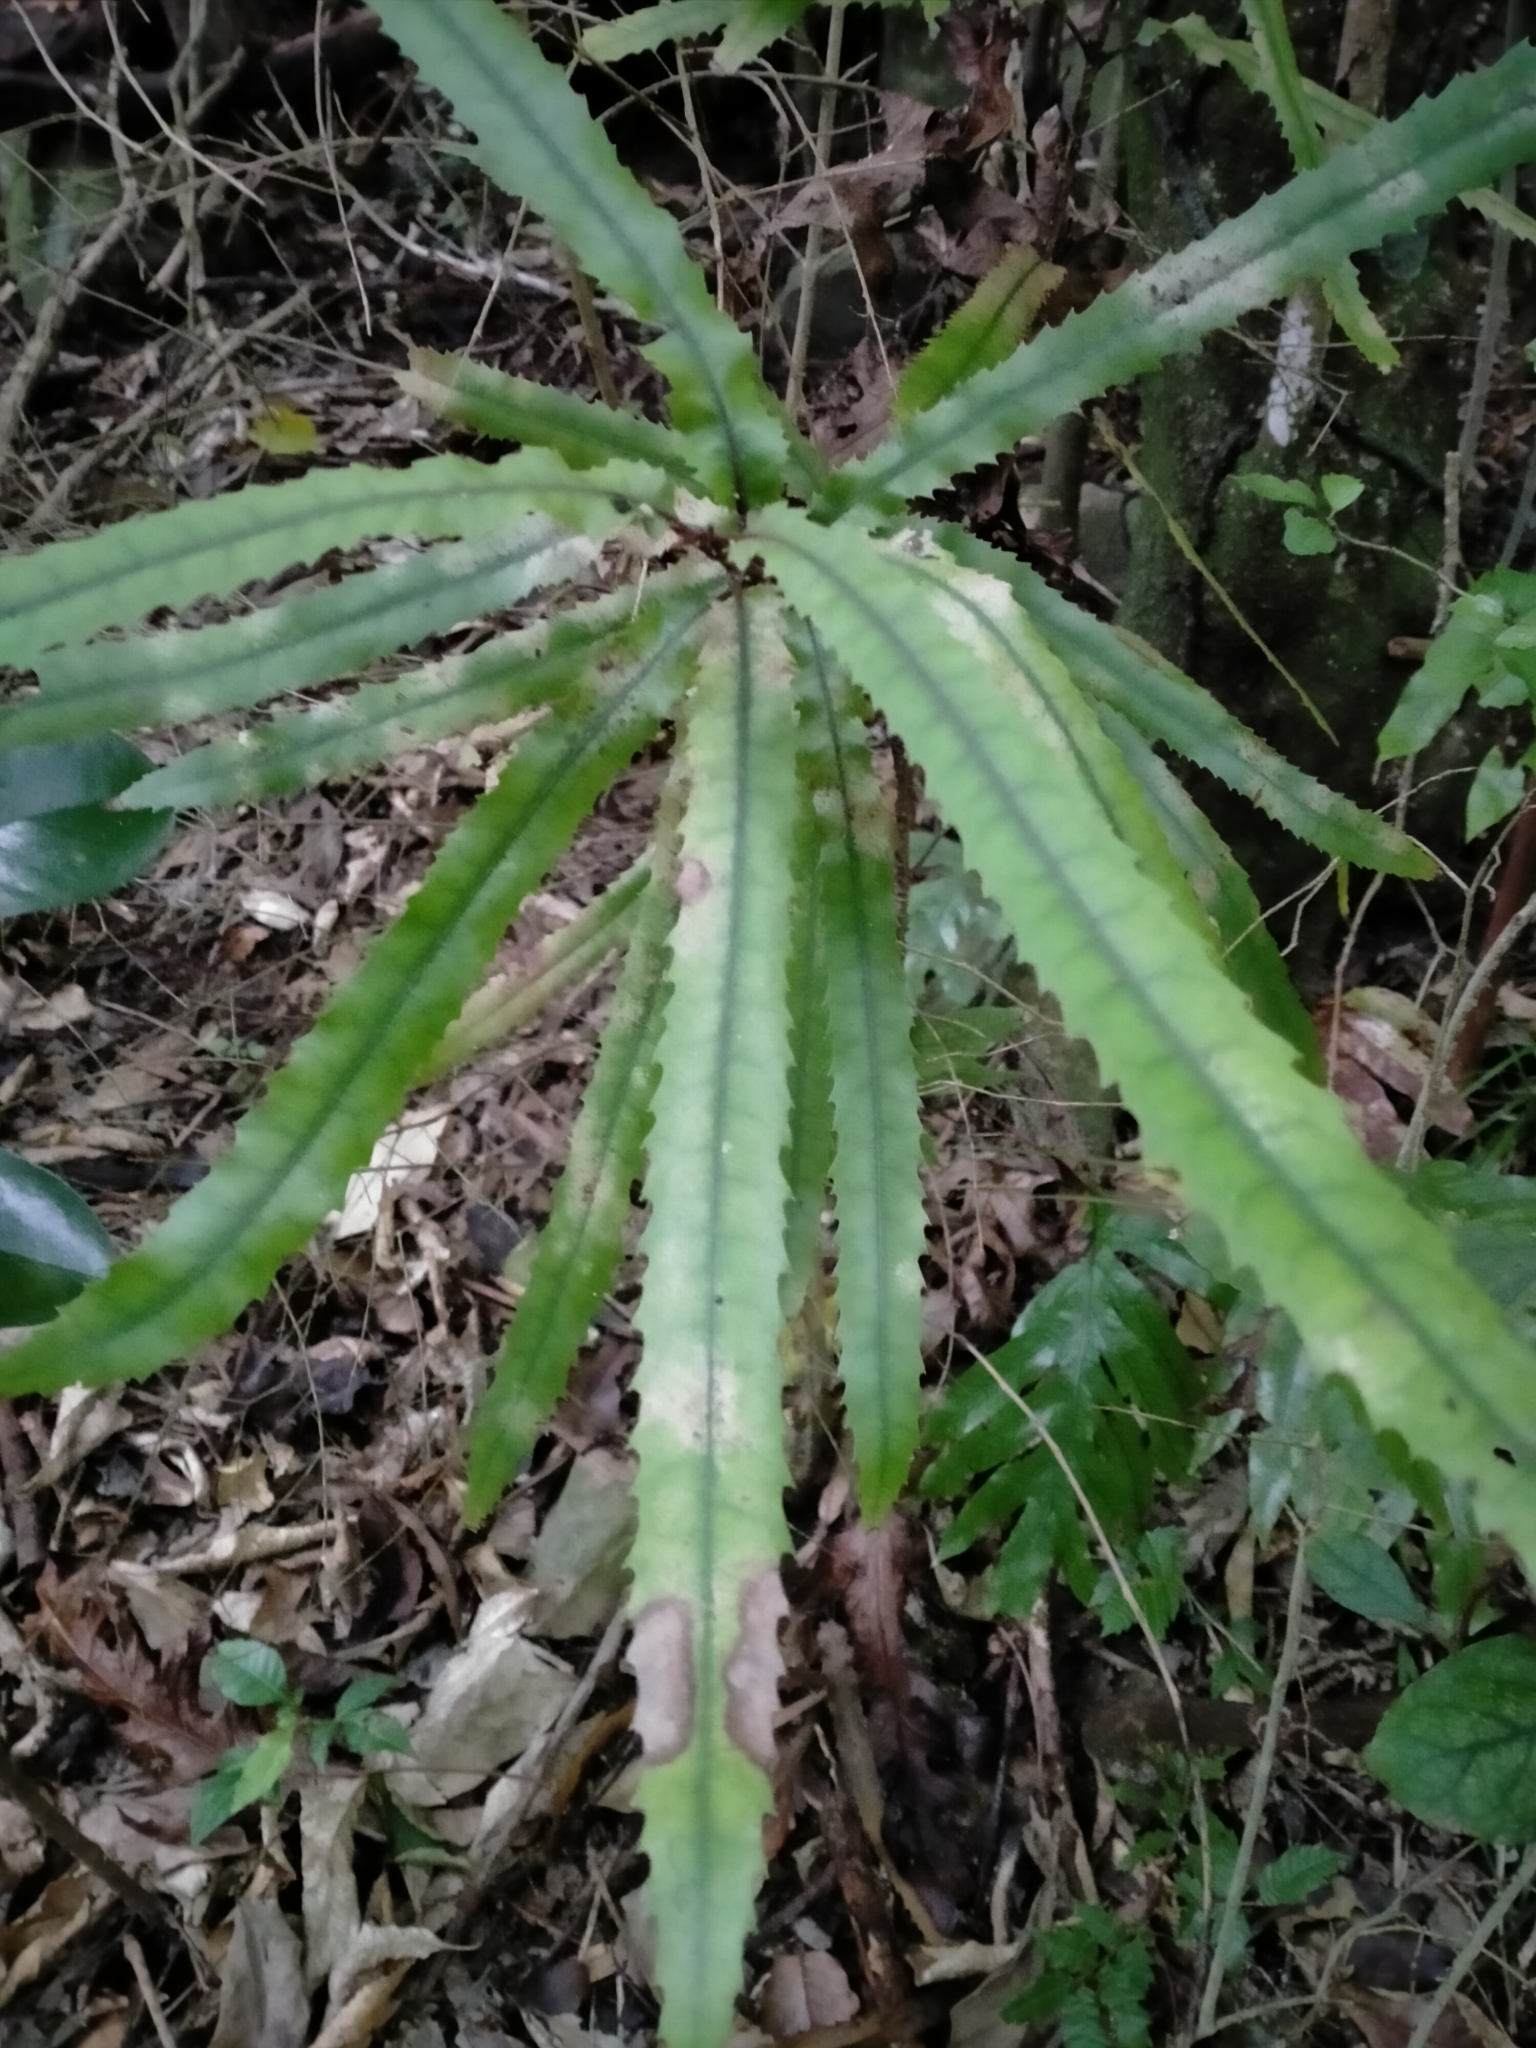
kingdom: Plantae
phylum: Tracheophyta
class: Magnoliopsida
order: Proteales
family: Proteaceae
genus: Knightia
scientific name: Knightia excelsa
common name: New zealand-honeysuckle
